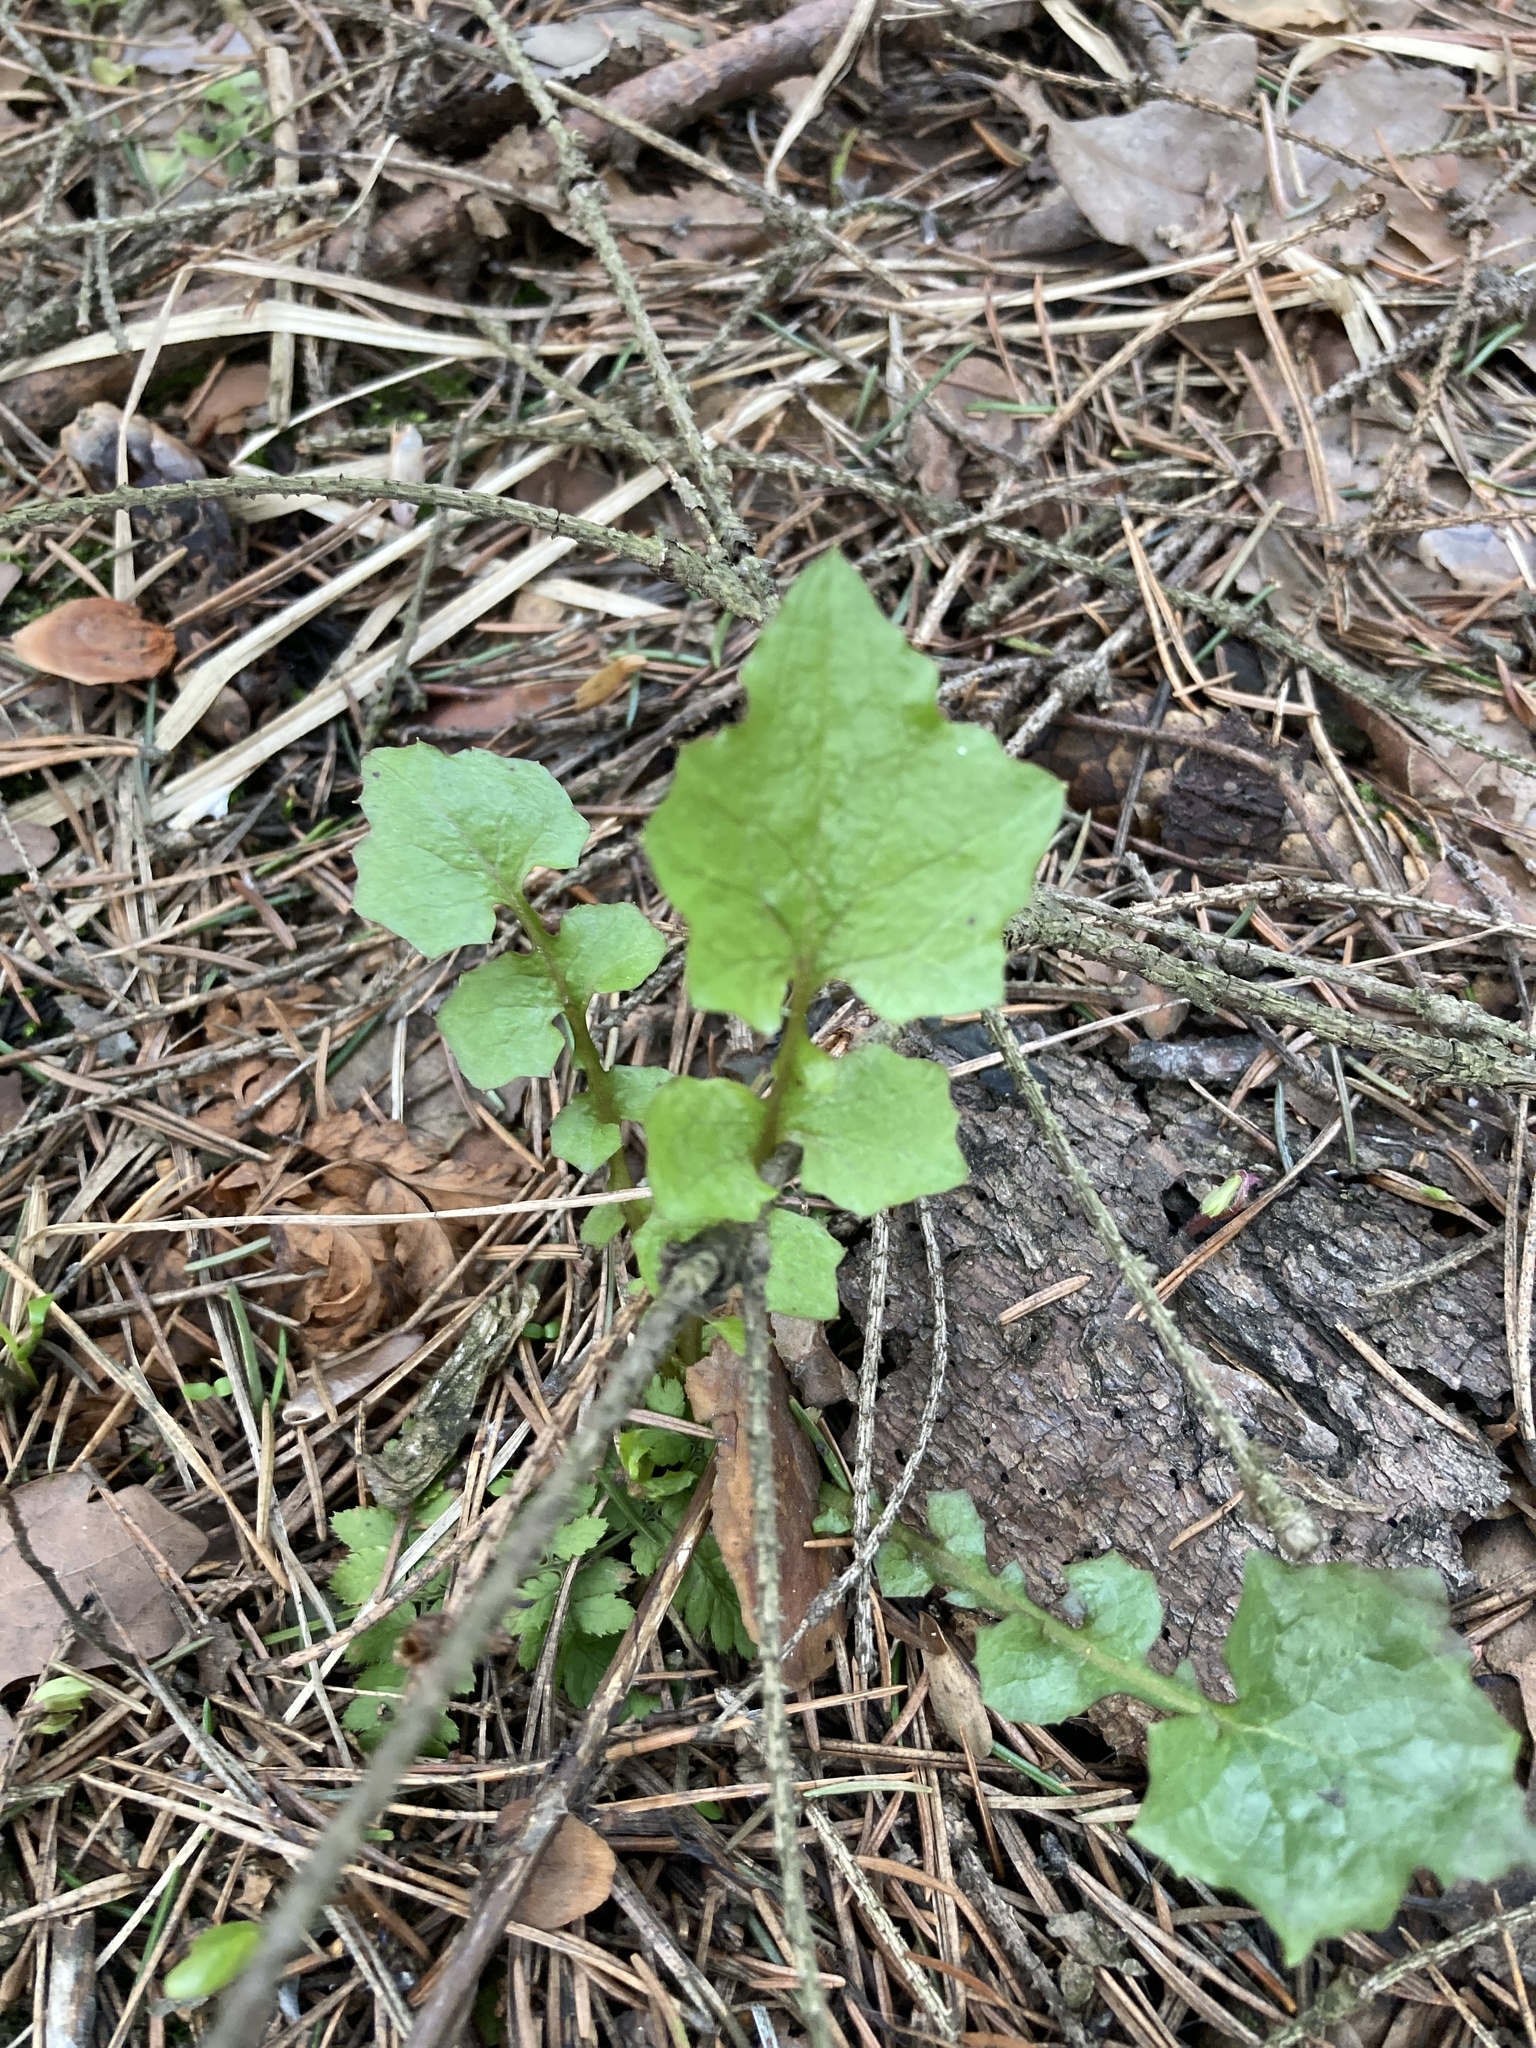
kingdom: Plantae
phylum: Tracheophyta
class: Magnoliopsida
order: Asterales
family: Asteraceae
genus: Mycelis
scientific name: Mycelis muralis
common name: Wall lettuce
